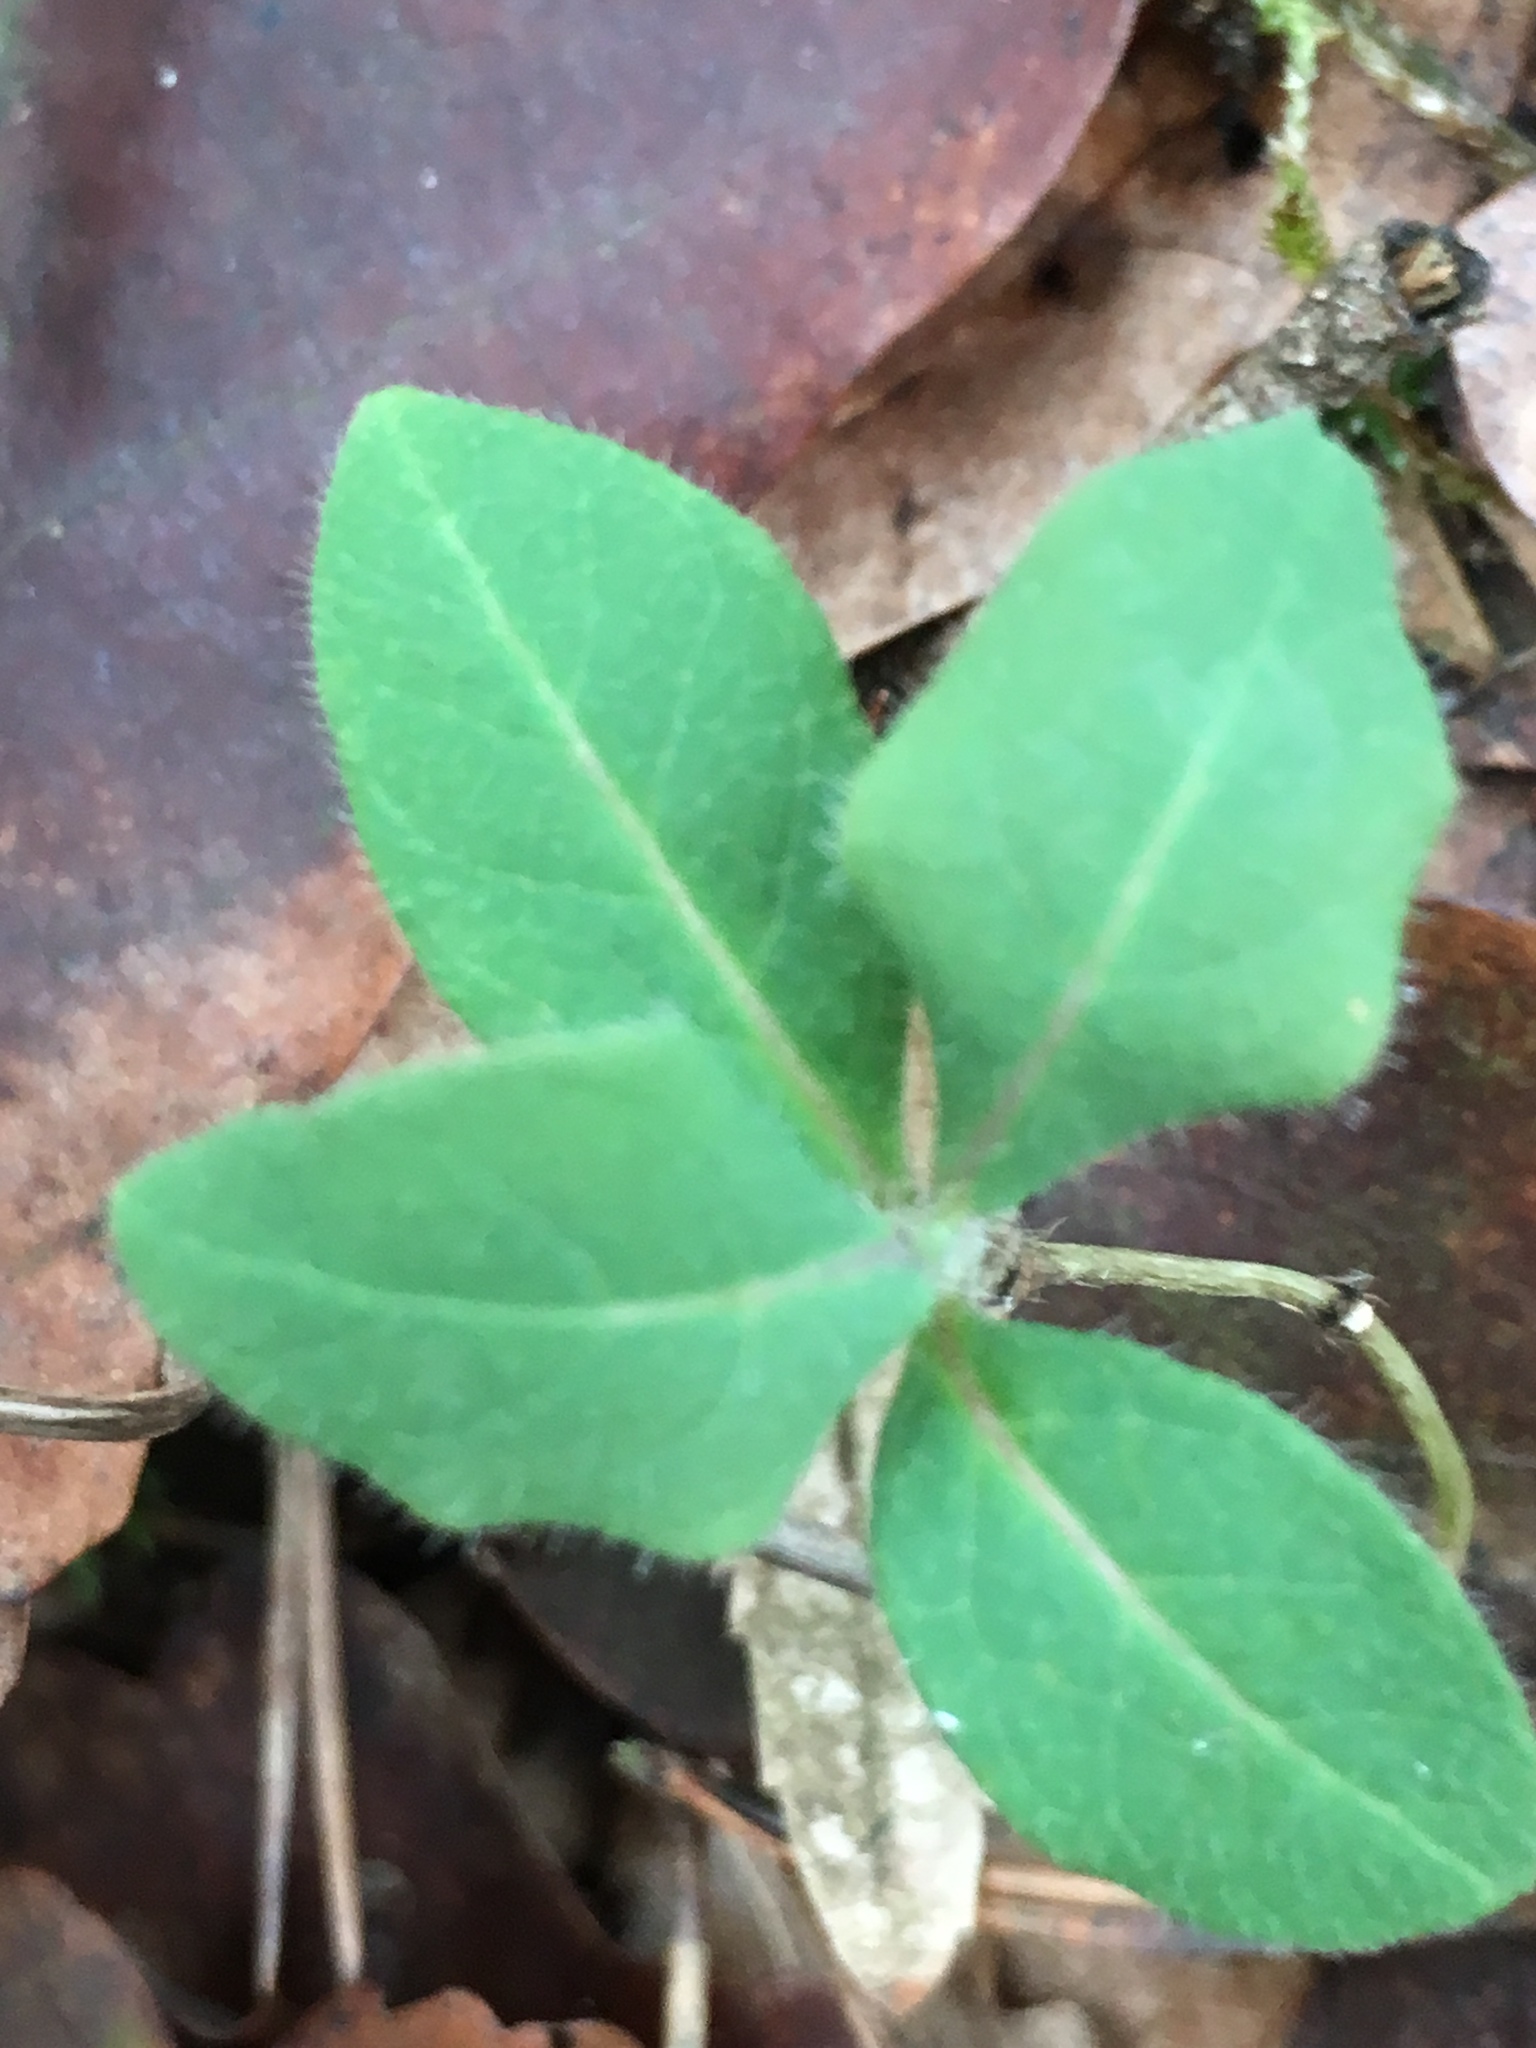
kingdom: Plantae
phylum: Tracheophyta
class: Magnoliopsida
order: Dipsacales
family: Caprifoliaceae
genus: Lonicera
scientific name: Lonicera periclymenum
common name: European honeysuckle
